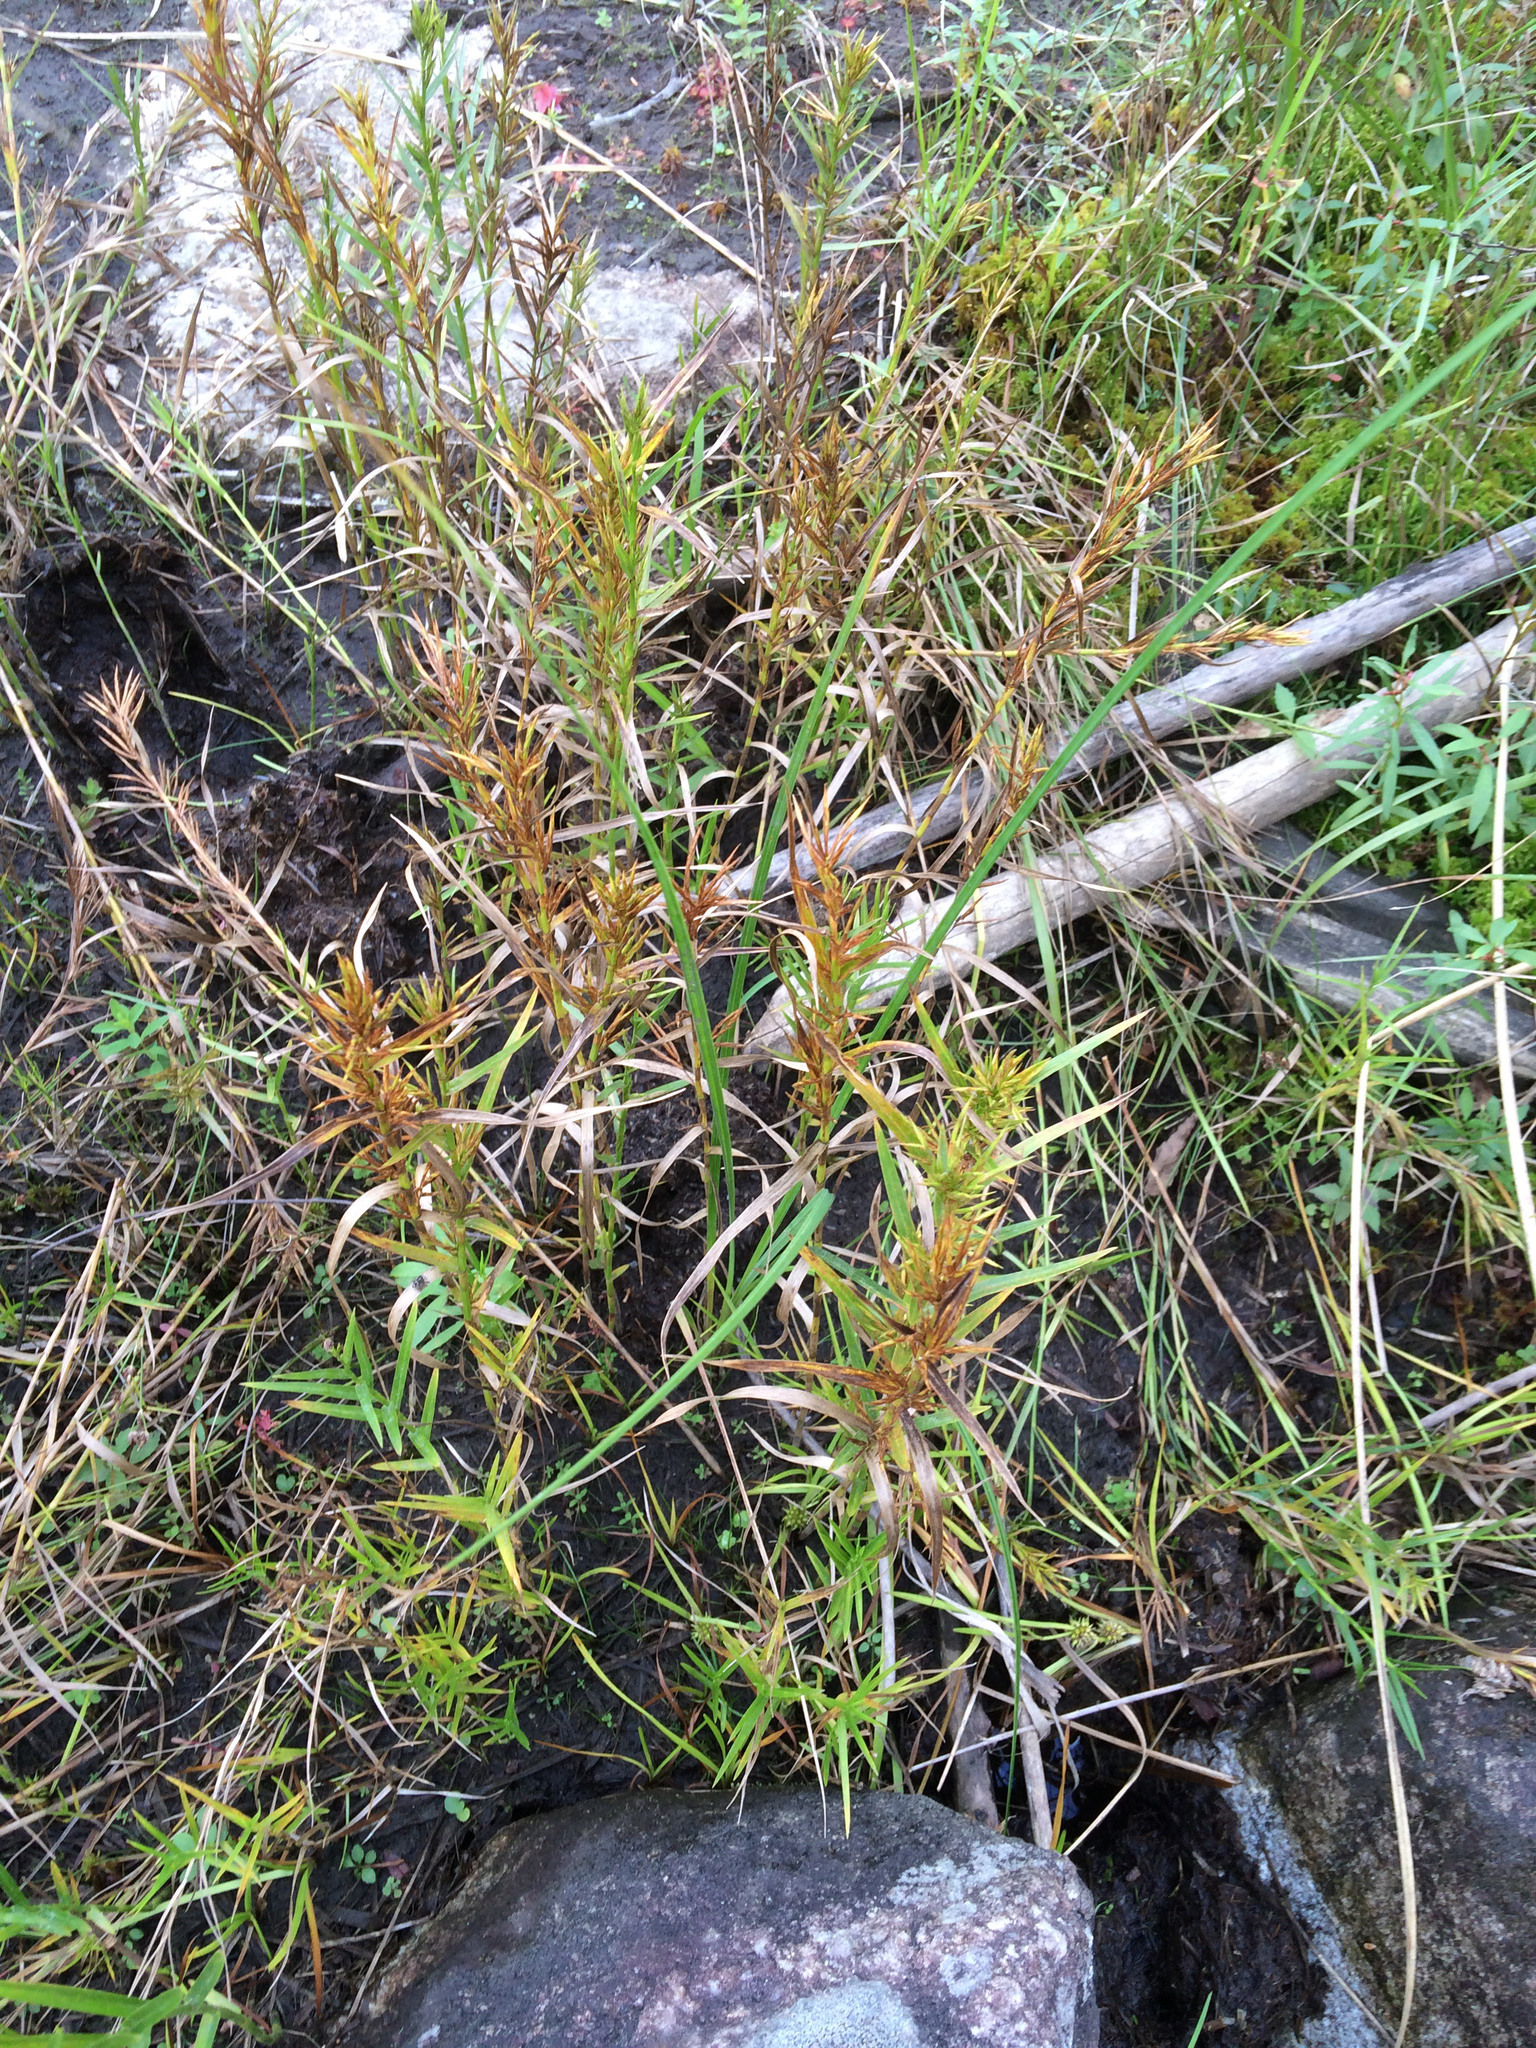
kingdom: Plantae
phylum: Tracheophyta
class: Liliopsida
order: Poales
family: Cyperaceae
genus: Dulichium
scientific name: Dulichium arundinaceum
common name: Three-way sedge
